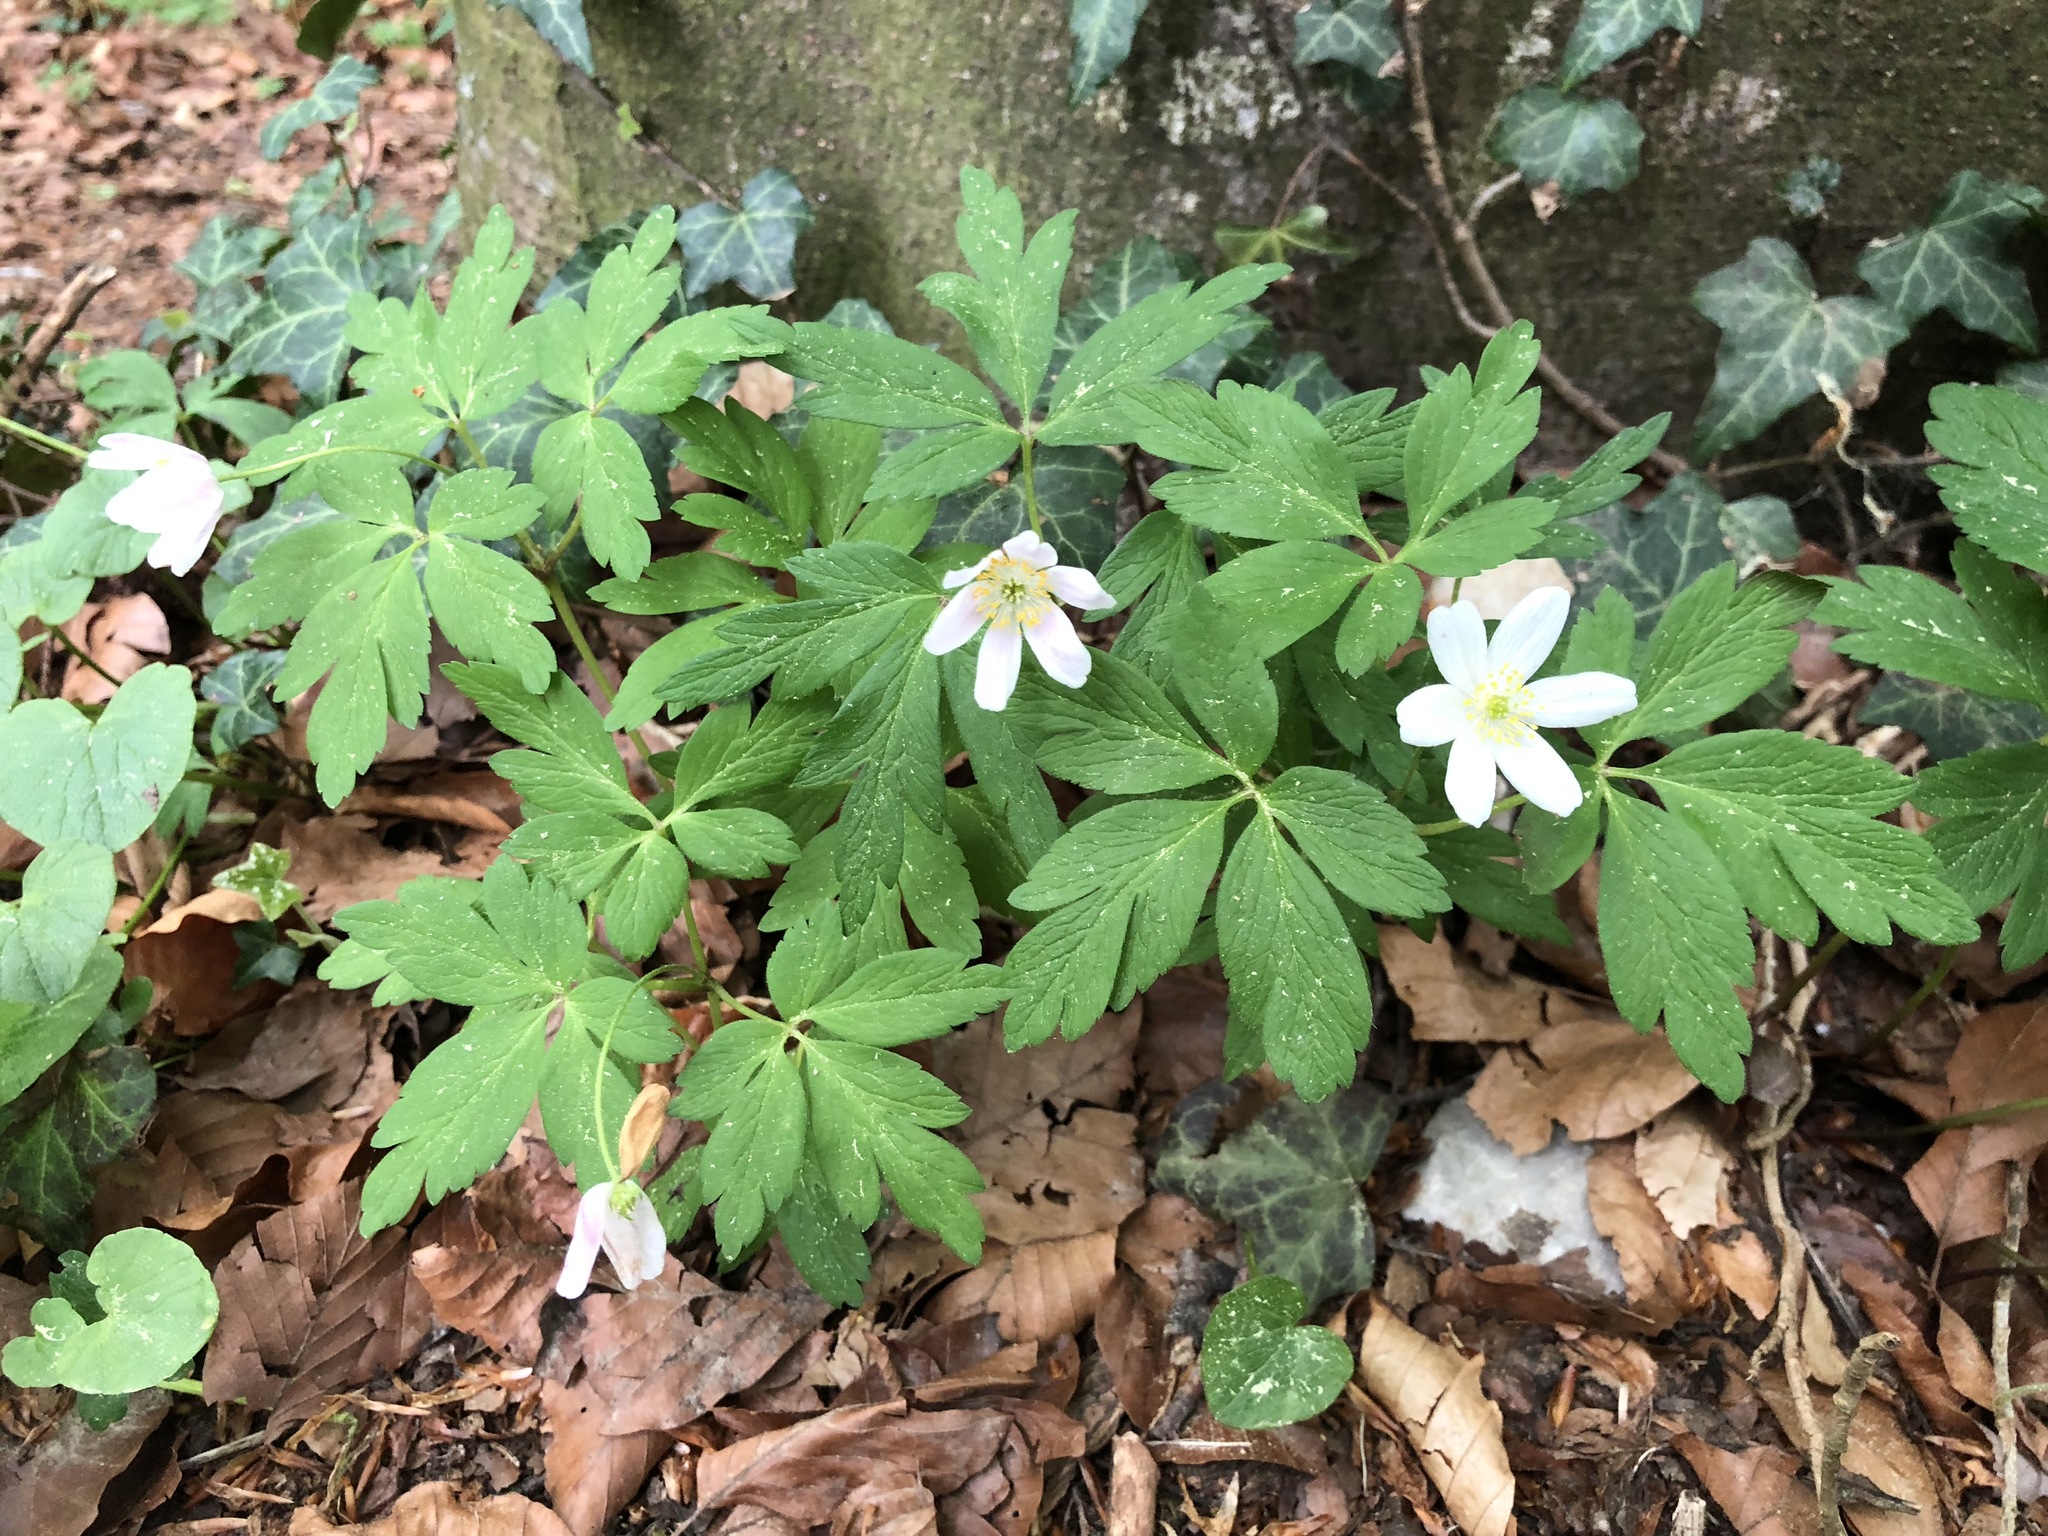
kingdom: Plantae
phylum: Tracheophyta
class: Magnoliopsida
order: Ranunculales
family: Ranunculaceae
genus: Anemone
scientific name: Anemone nemorosa
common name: Wood anemone
